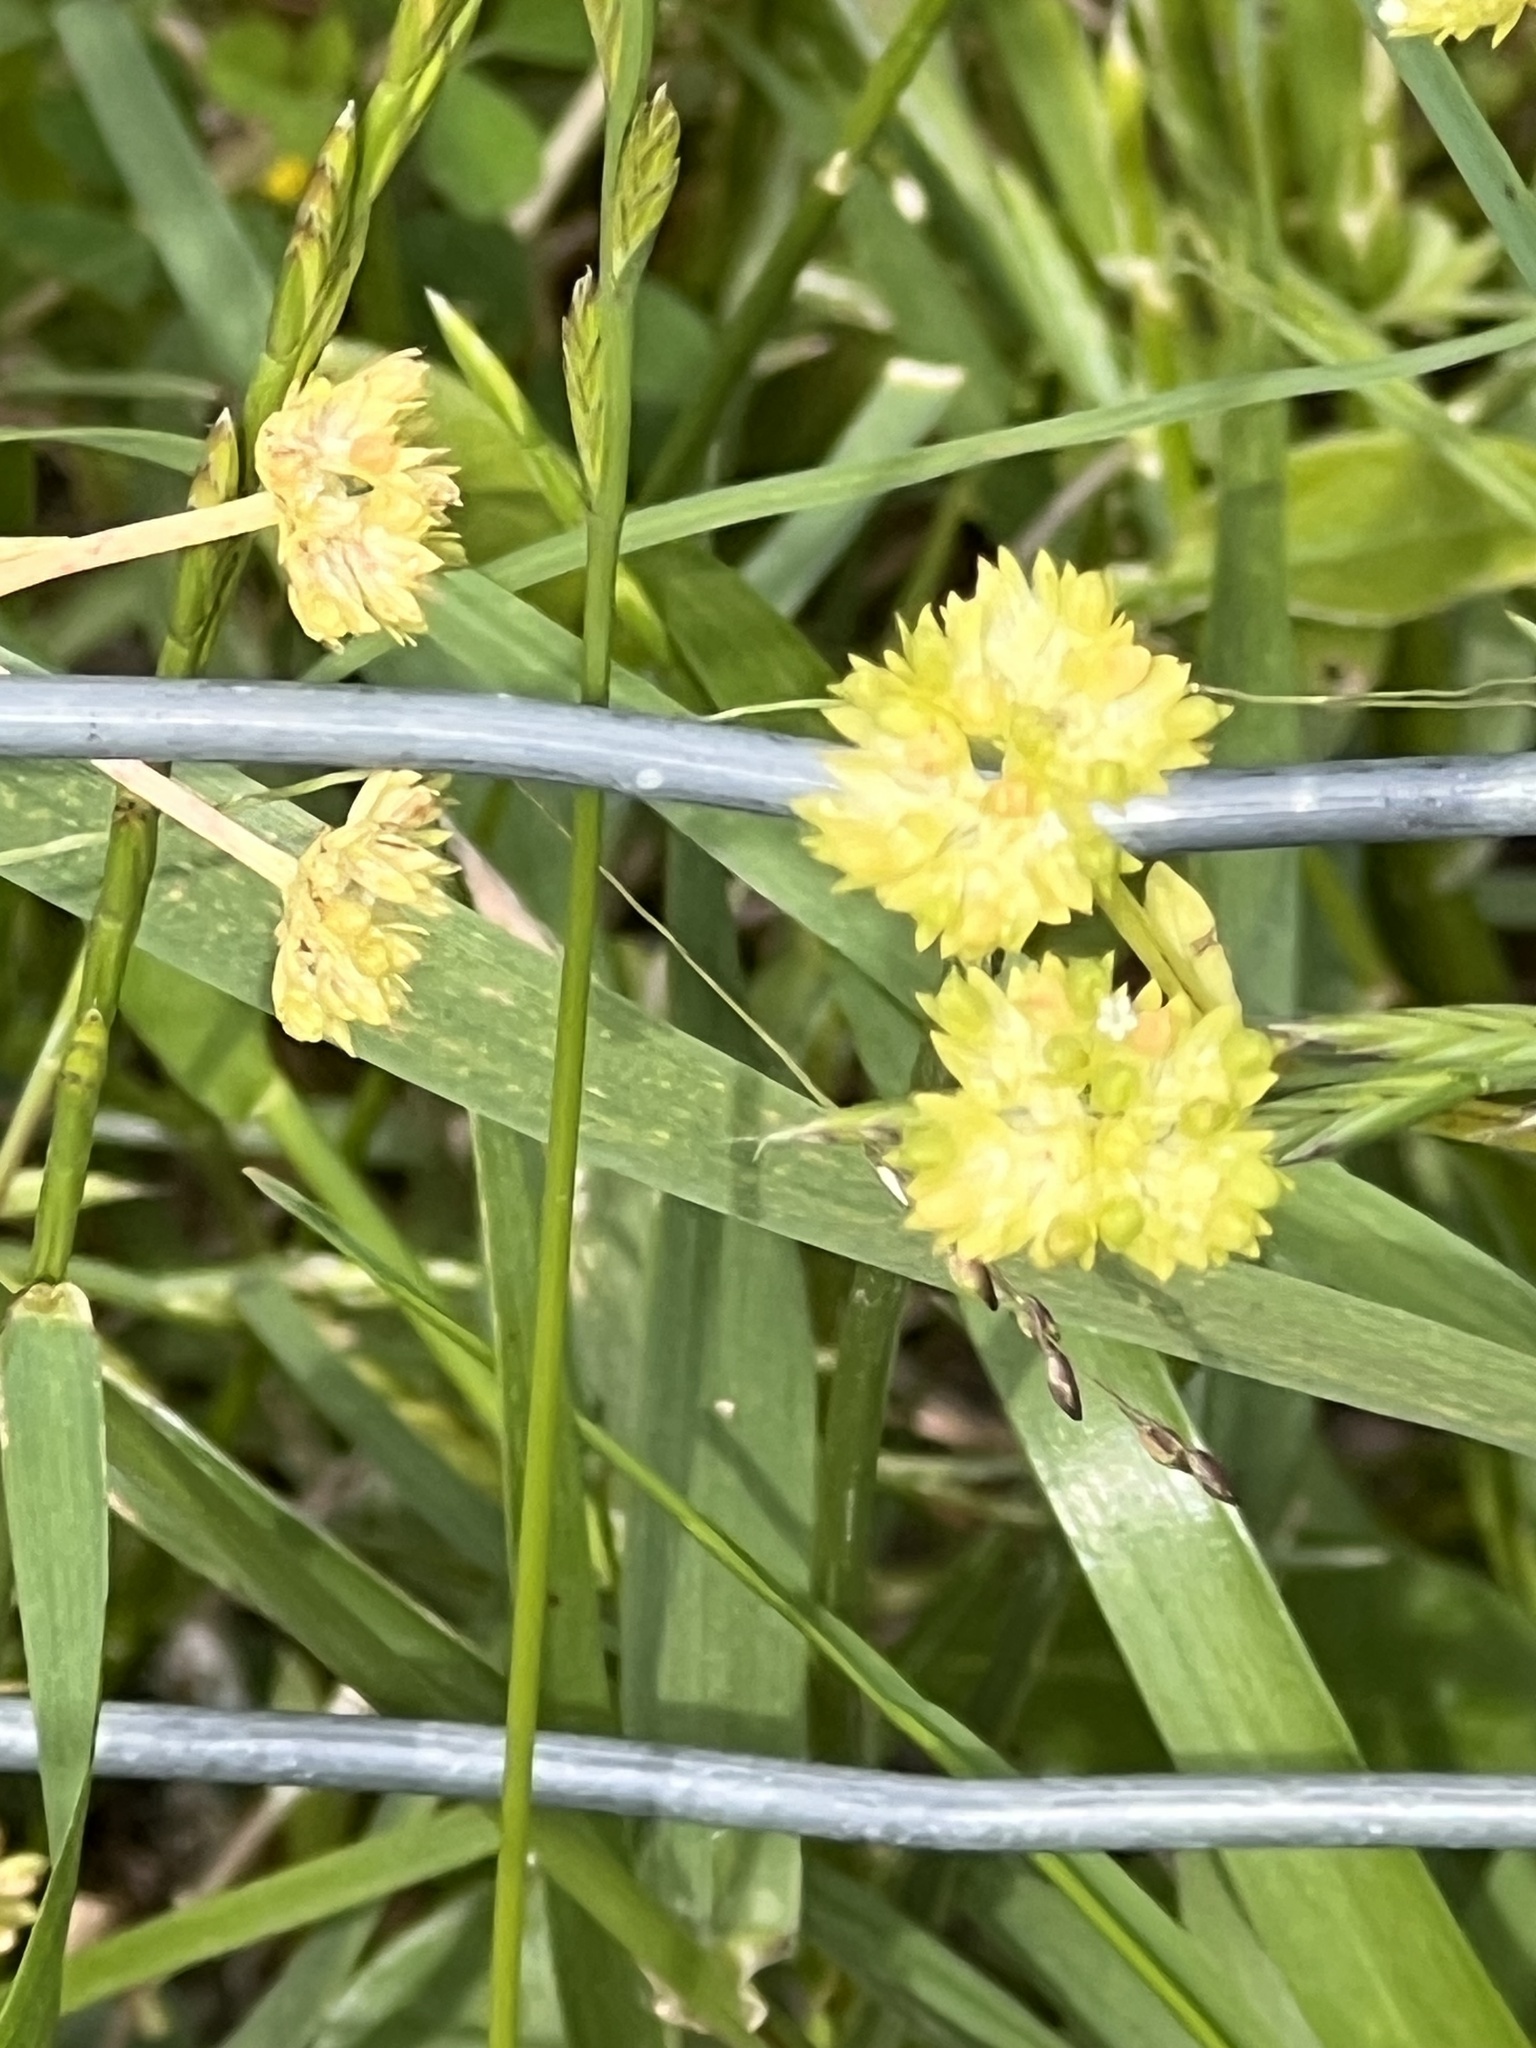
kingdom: Plantae
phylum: Tracheophyta
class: Magnoliopsida
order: Dipsacales
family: Caprifoliaceae
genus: Valerianella
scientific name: Valerianella radiata
